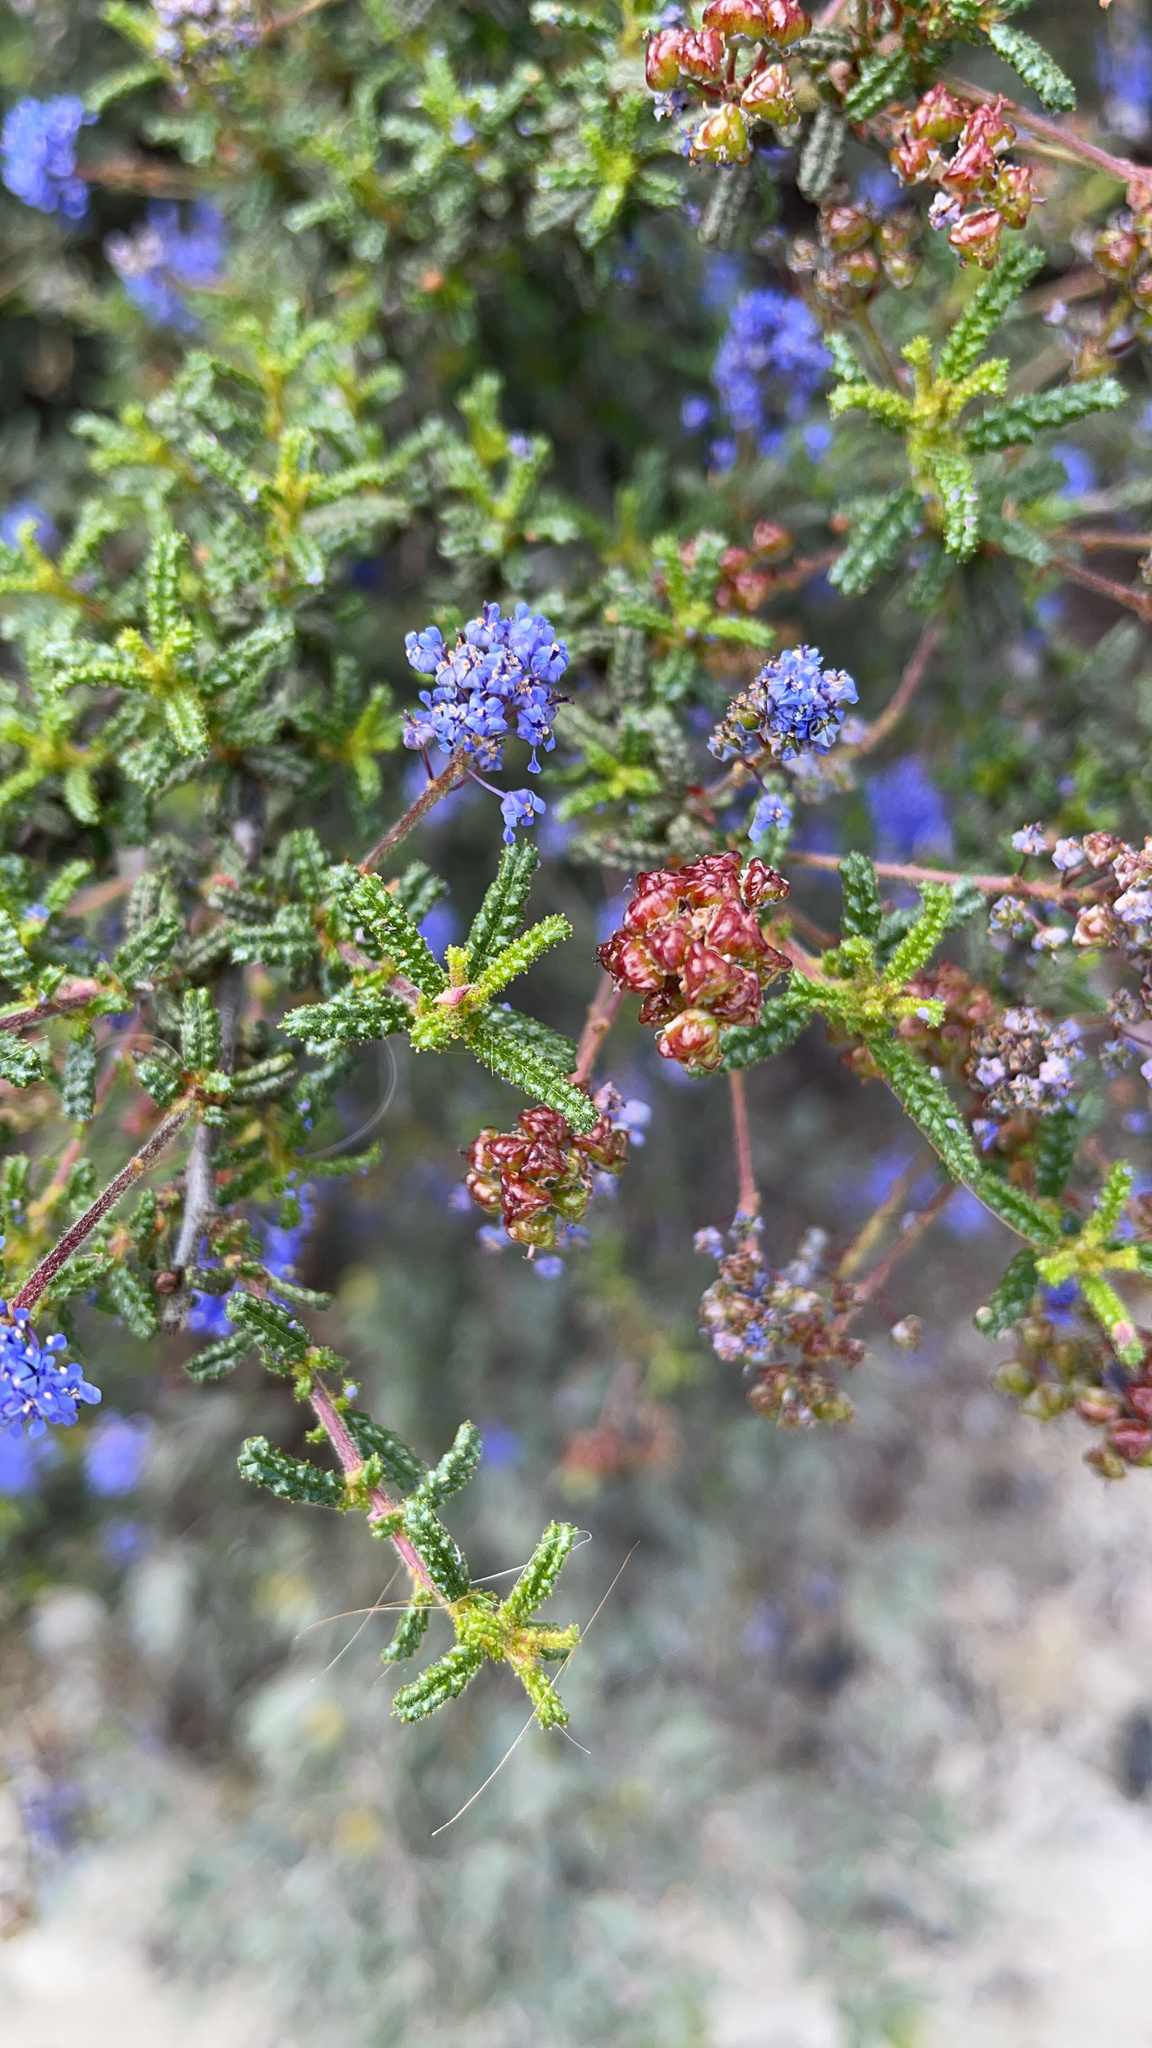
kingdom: Plantae
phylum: Tracheophyta
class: Magnoliopsida
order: Rosales
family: Rhamnaceae
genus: Ceanothus
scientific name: Ceanothus papillosus
